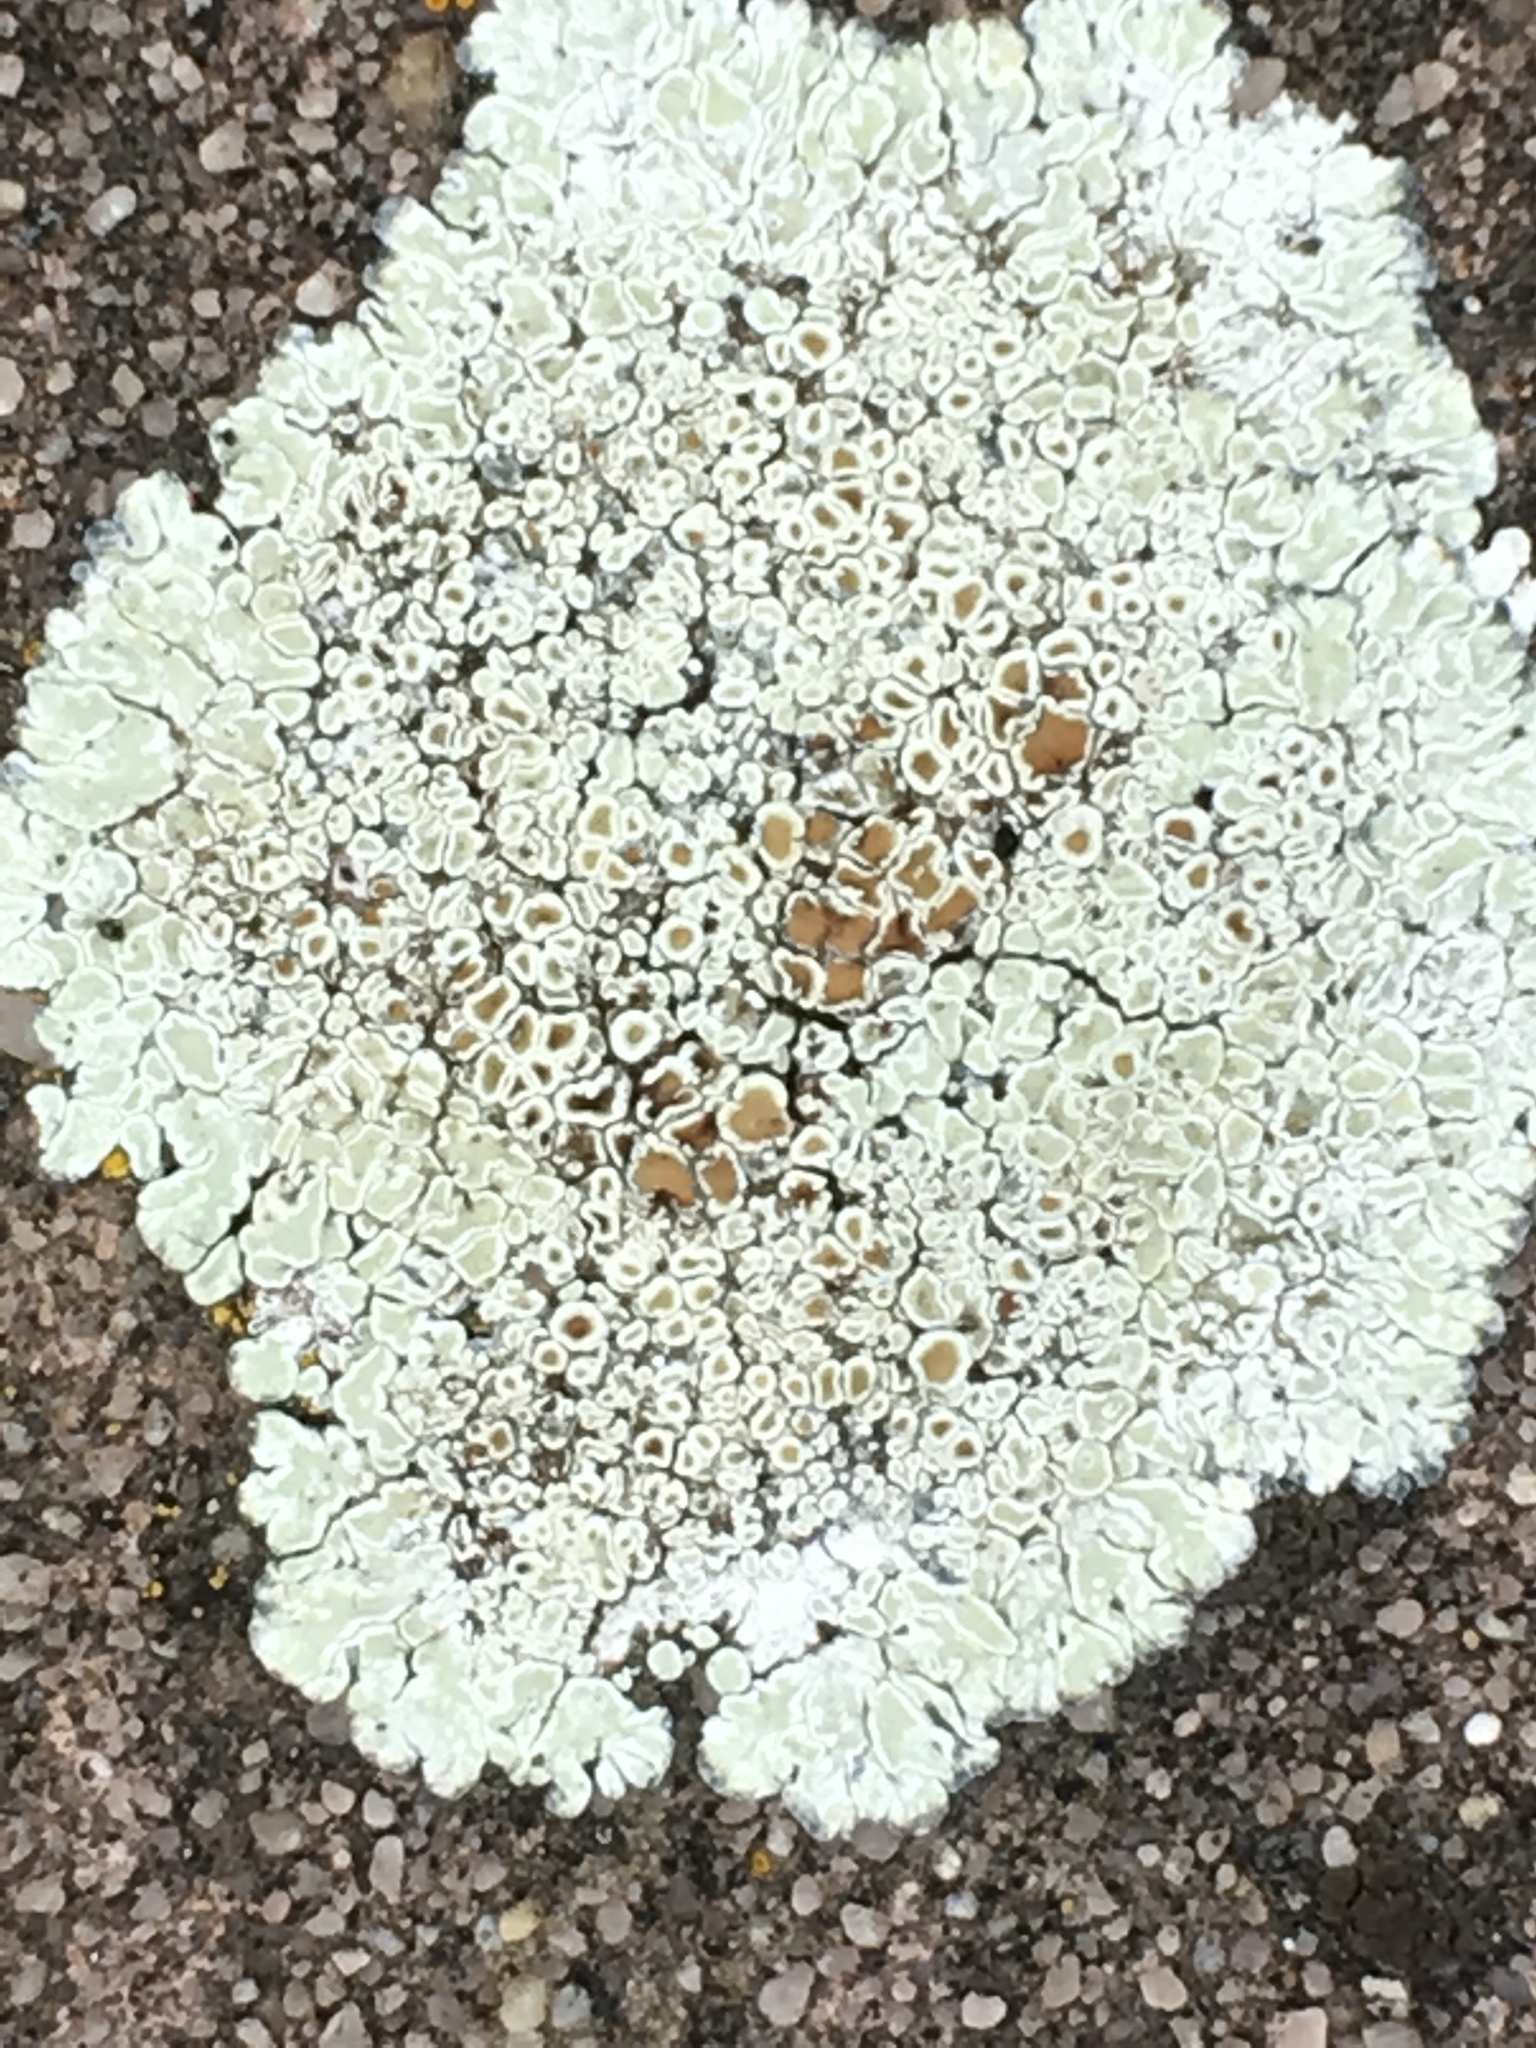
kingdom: Fungi
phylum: Ascomycota
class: Lecanoromycetes
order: Lecanorales
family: Lecanoraceae
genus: Protoparmeliopsis
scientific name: Protoparmeliopsis muralis
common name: Stonewall rim lichen
